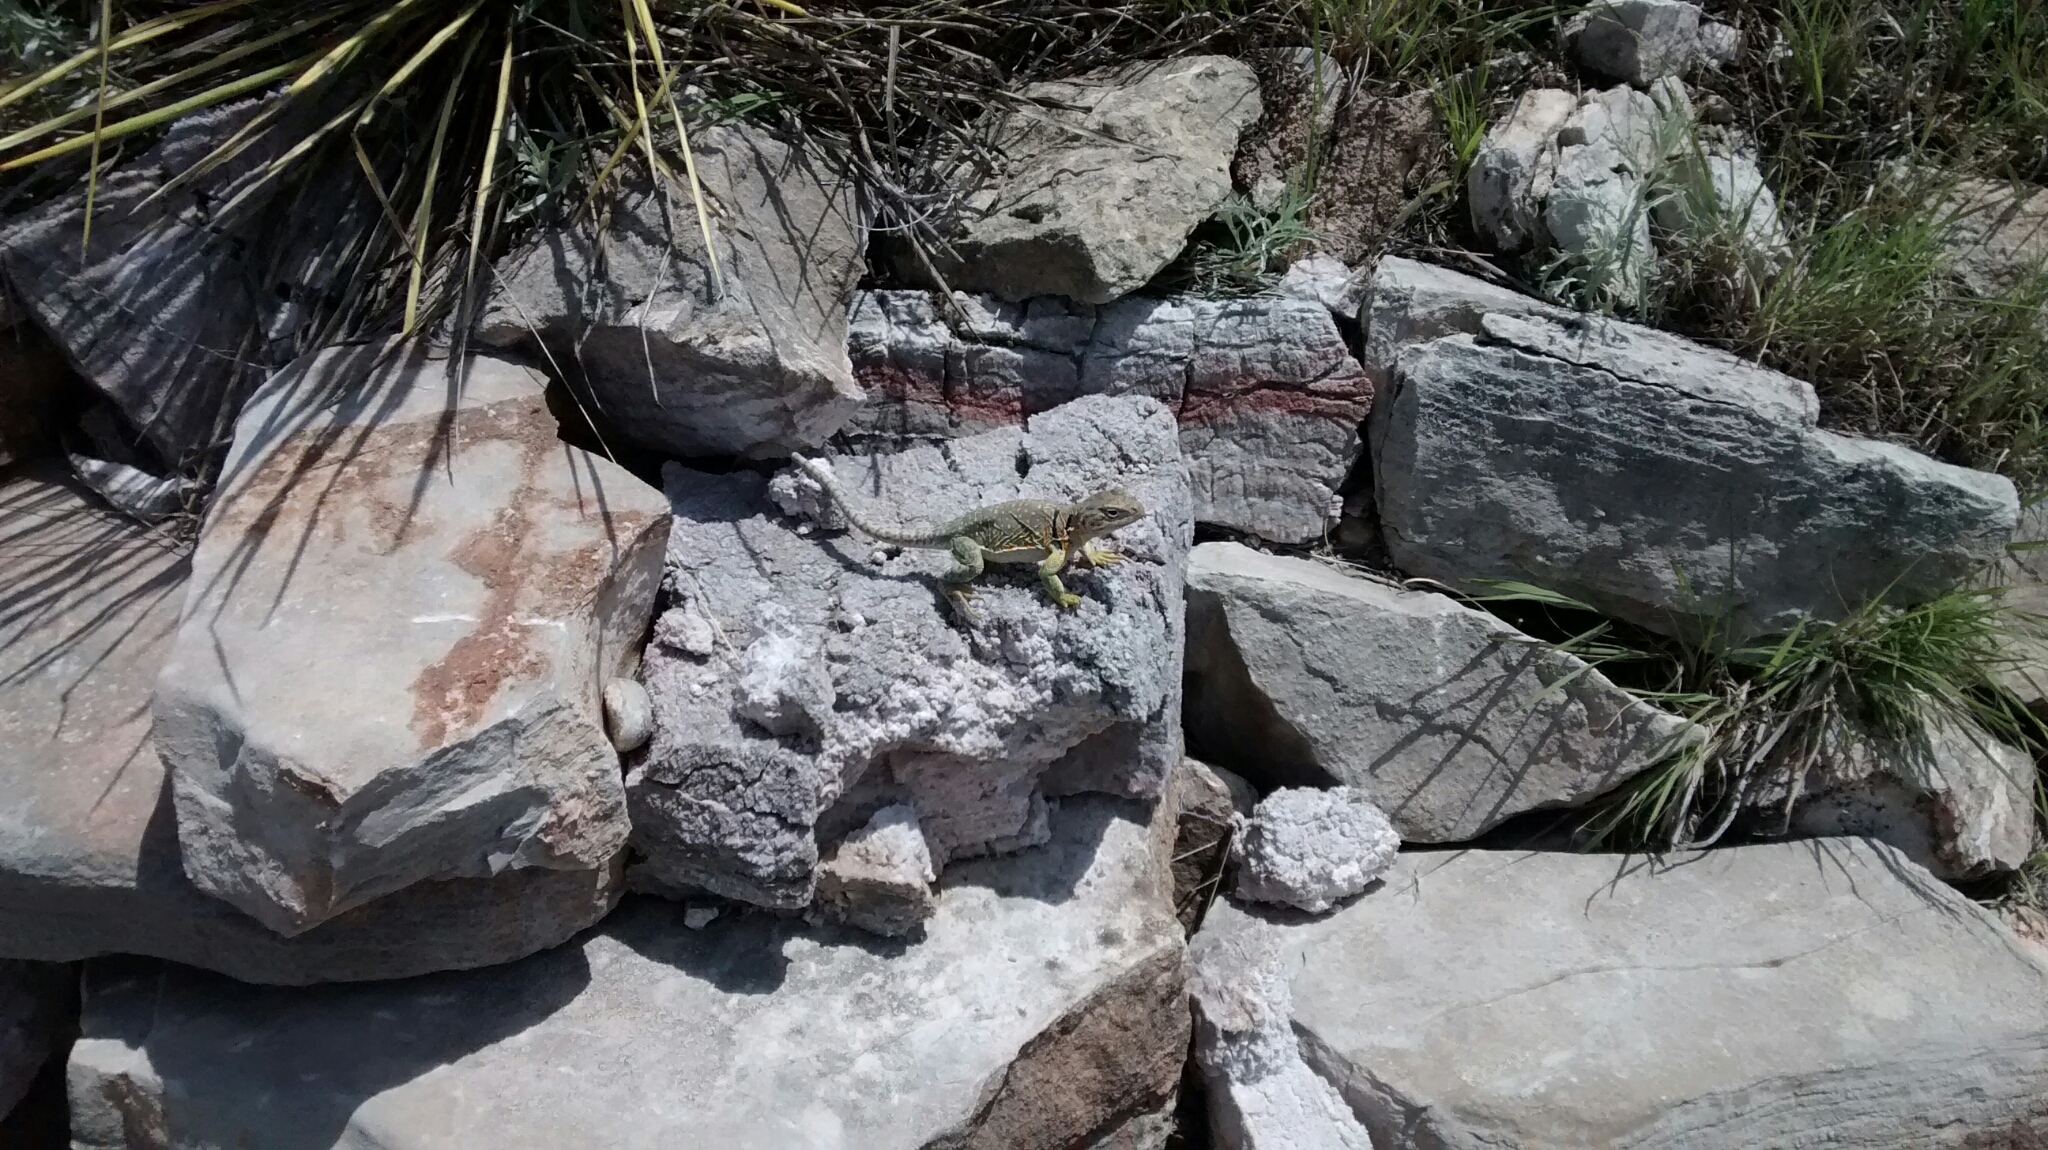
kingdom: Animalia
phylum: Chordata
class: Squamata
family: Crotaphytidae
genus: Crotaphytus
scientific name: Crotaphytus collaris
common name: Collared lizard
